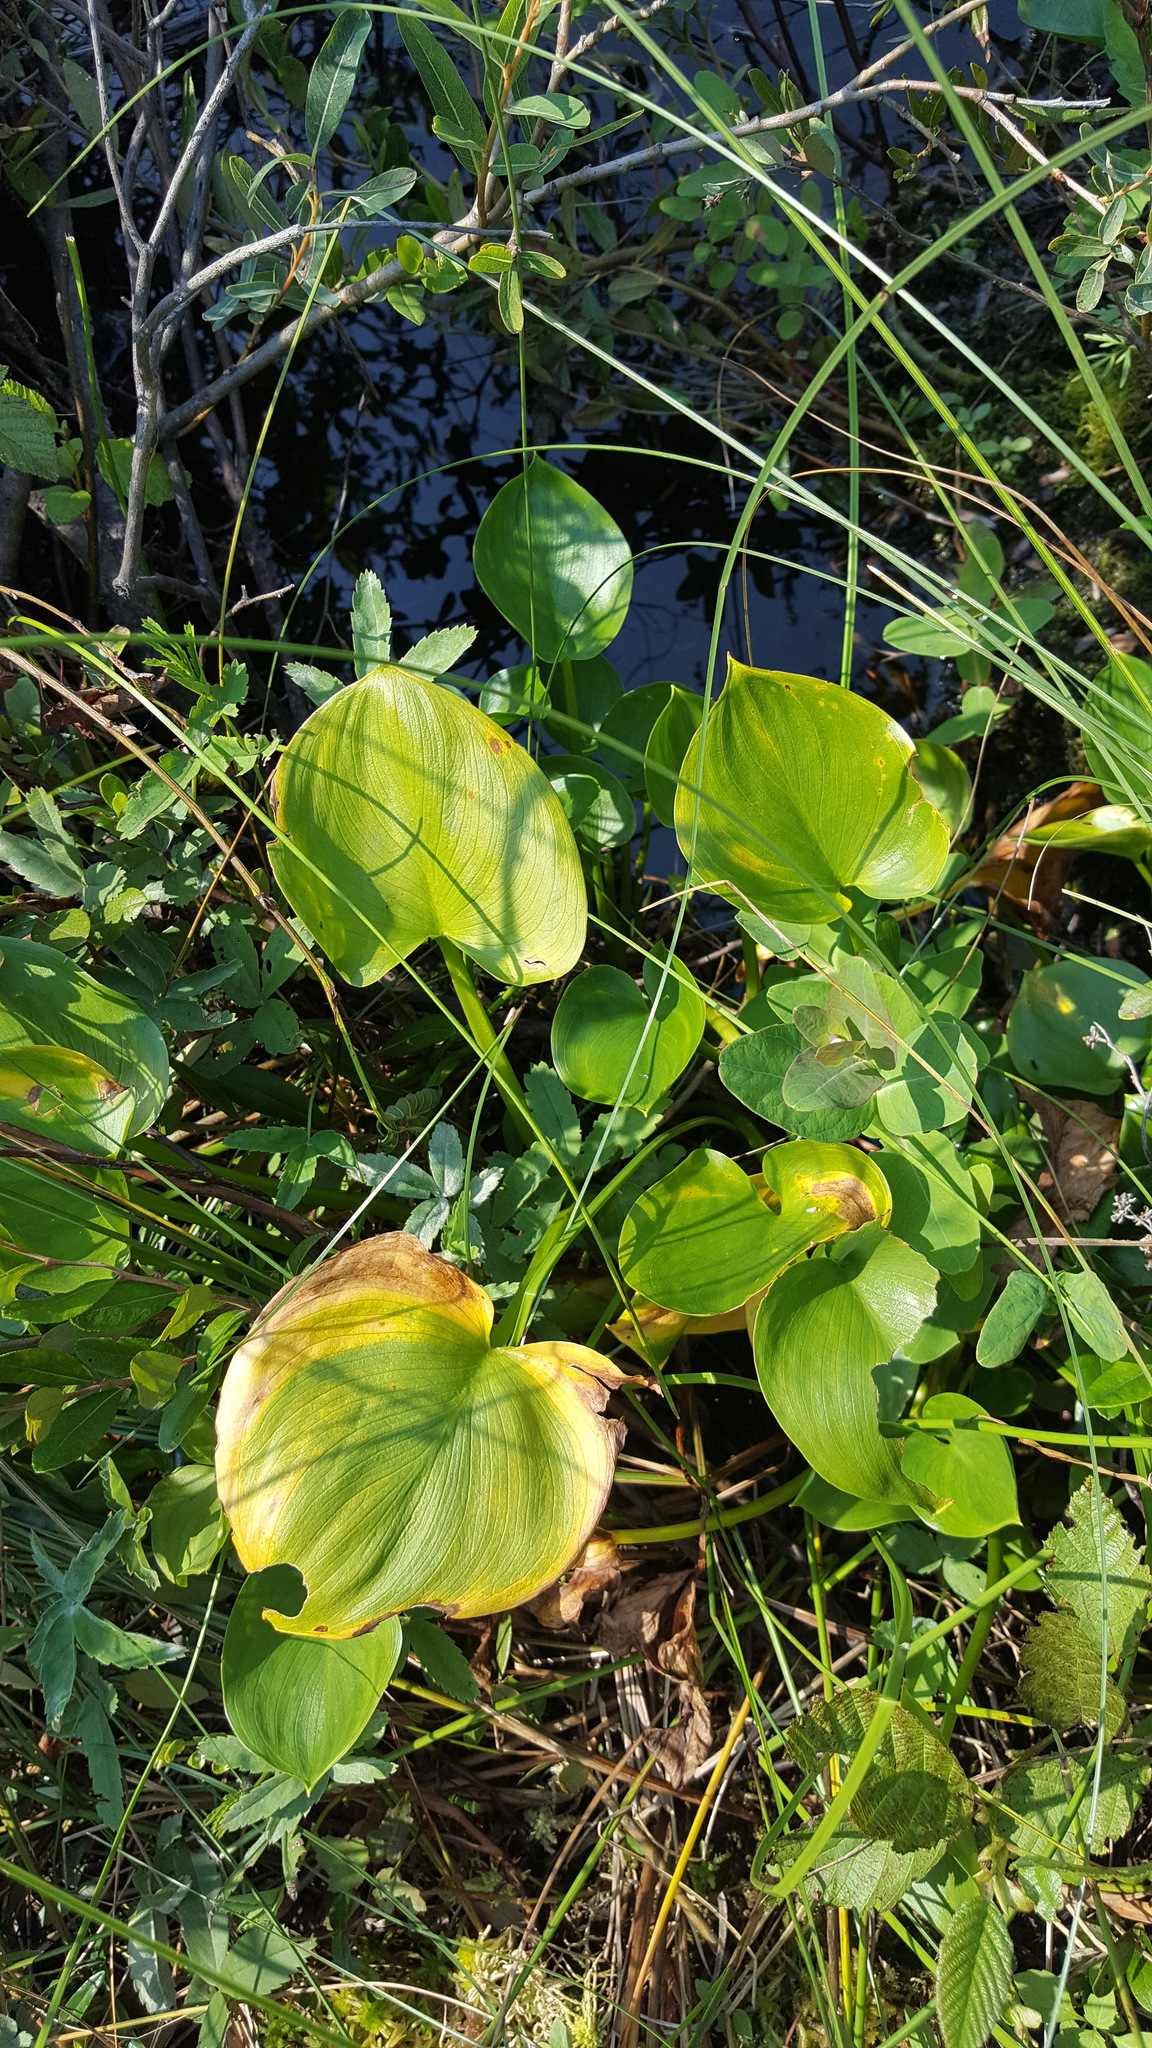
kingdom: Plantae
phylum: Tracheophyta
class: Liliopsida
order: Alismatales
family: Araceae
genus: Calla
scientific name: Calla palustris
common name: Bog arum
